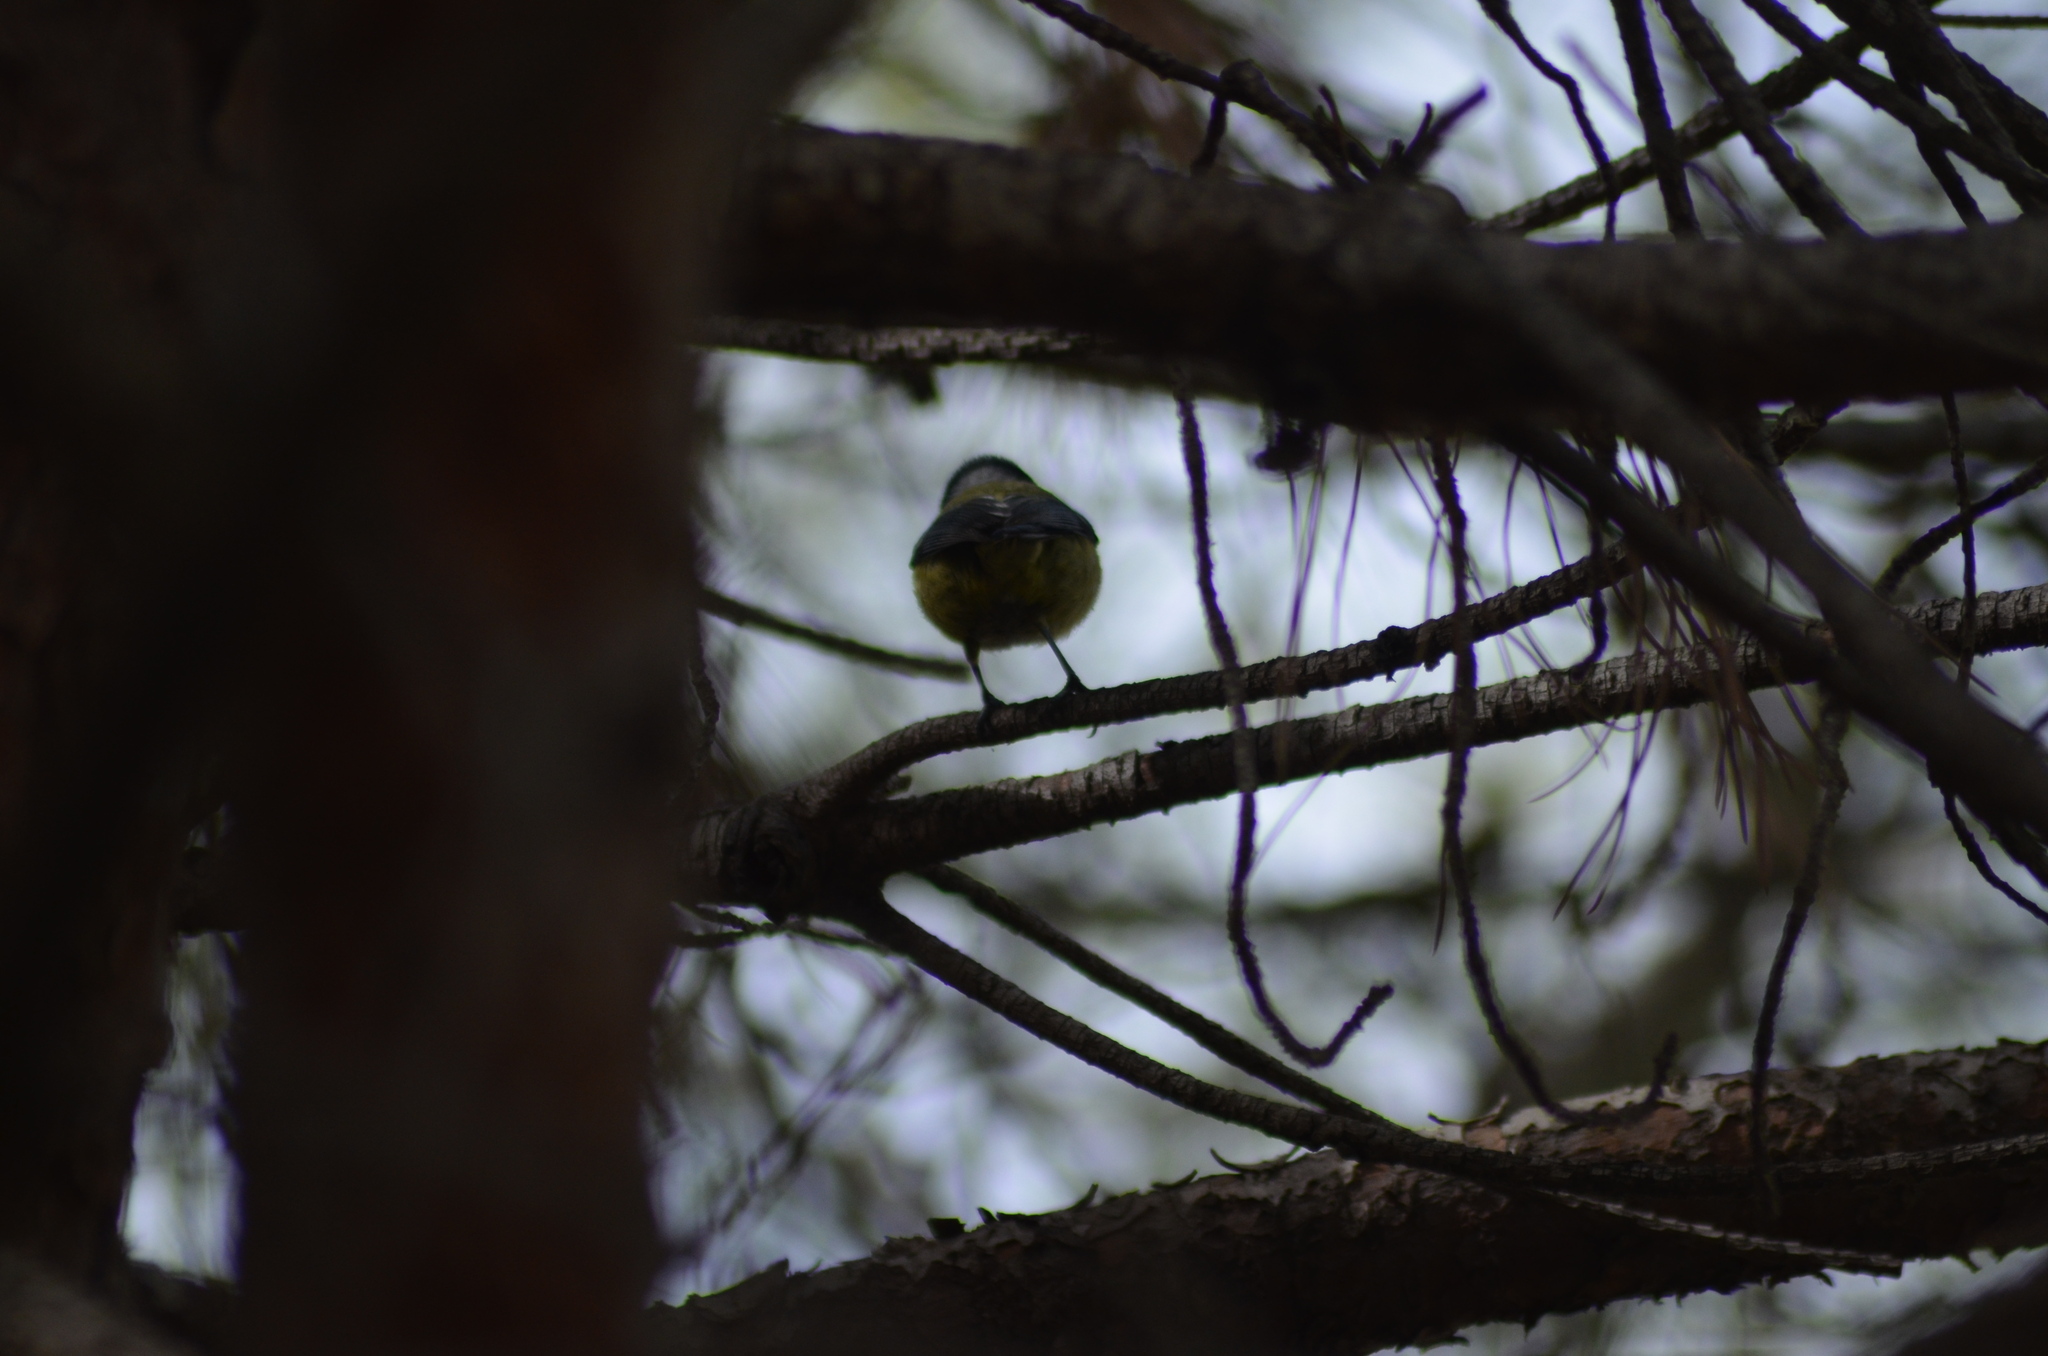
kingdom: Animalia
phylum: Chordata
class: Aves
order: Passeriformes
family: Paridae
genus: Cyanistes
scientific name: Cyanistes caeruleus
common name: Eurasian blue tit
